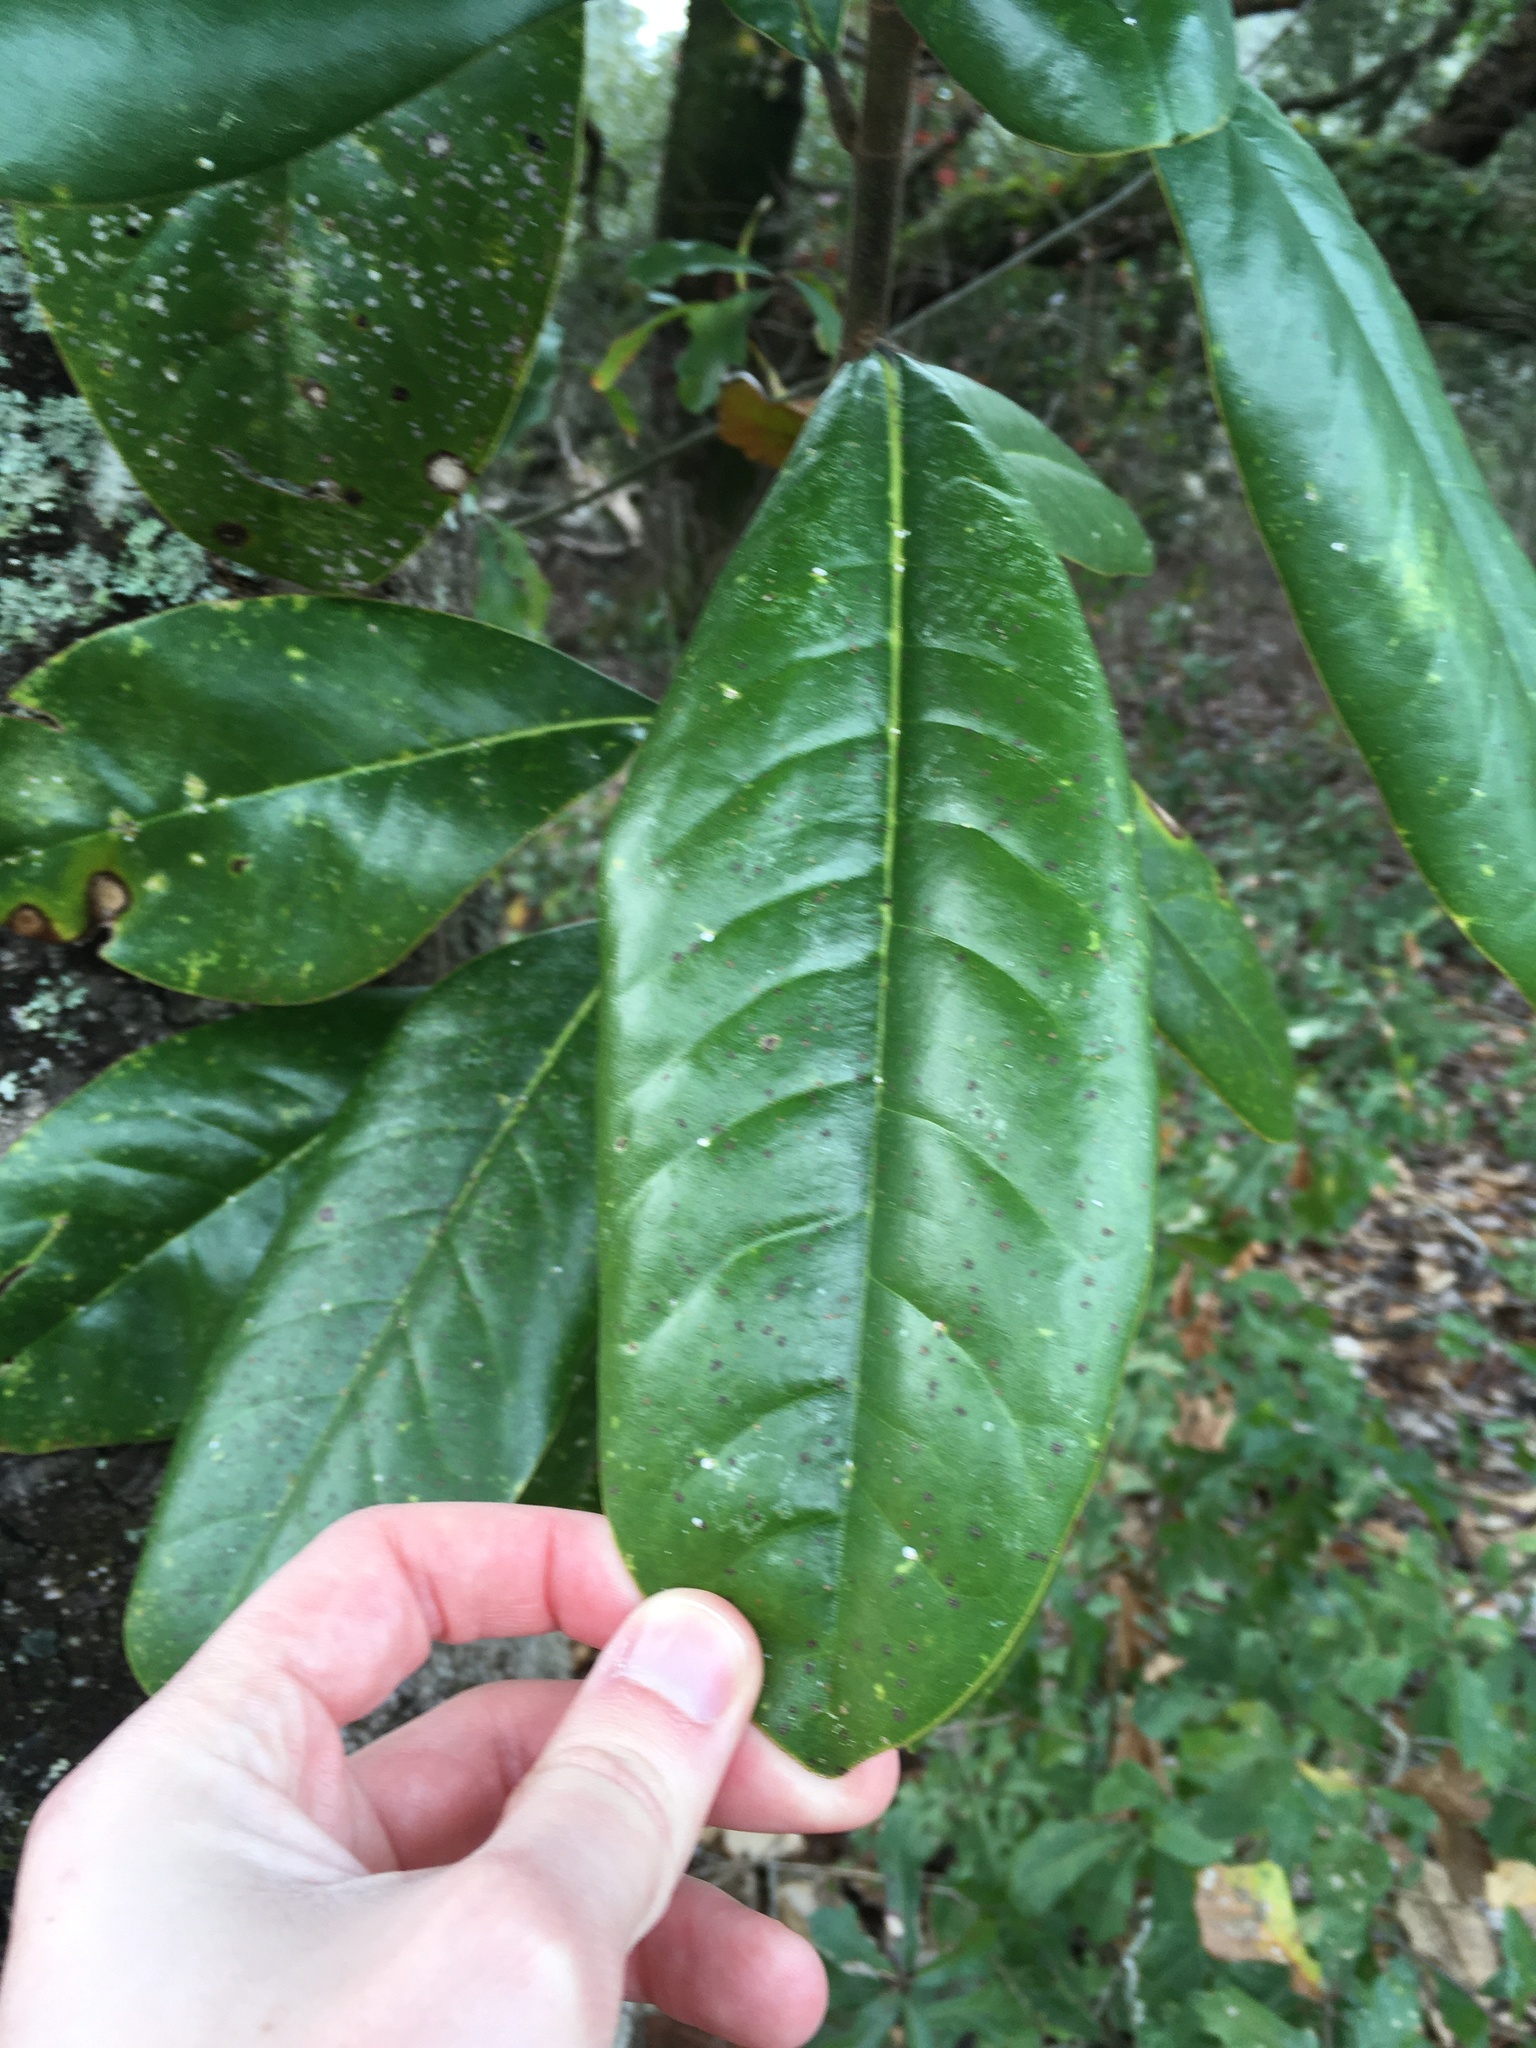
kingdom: Plantae
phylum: Tracheophyta
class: Magnoliopsida
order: Magnoliales
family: Magnoliaceae
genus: Magnolia
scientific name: Magnolia grandiflora
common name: Southern magnolia
